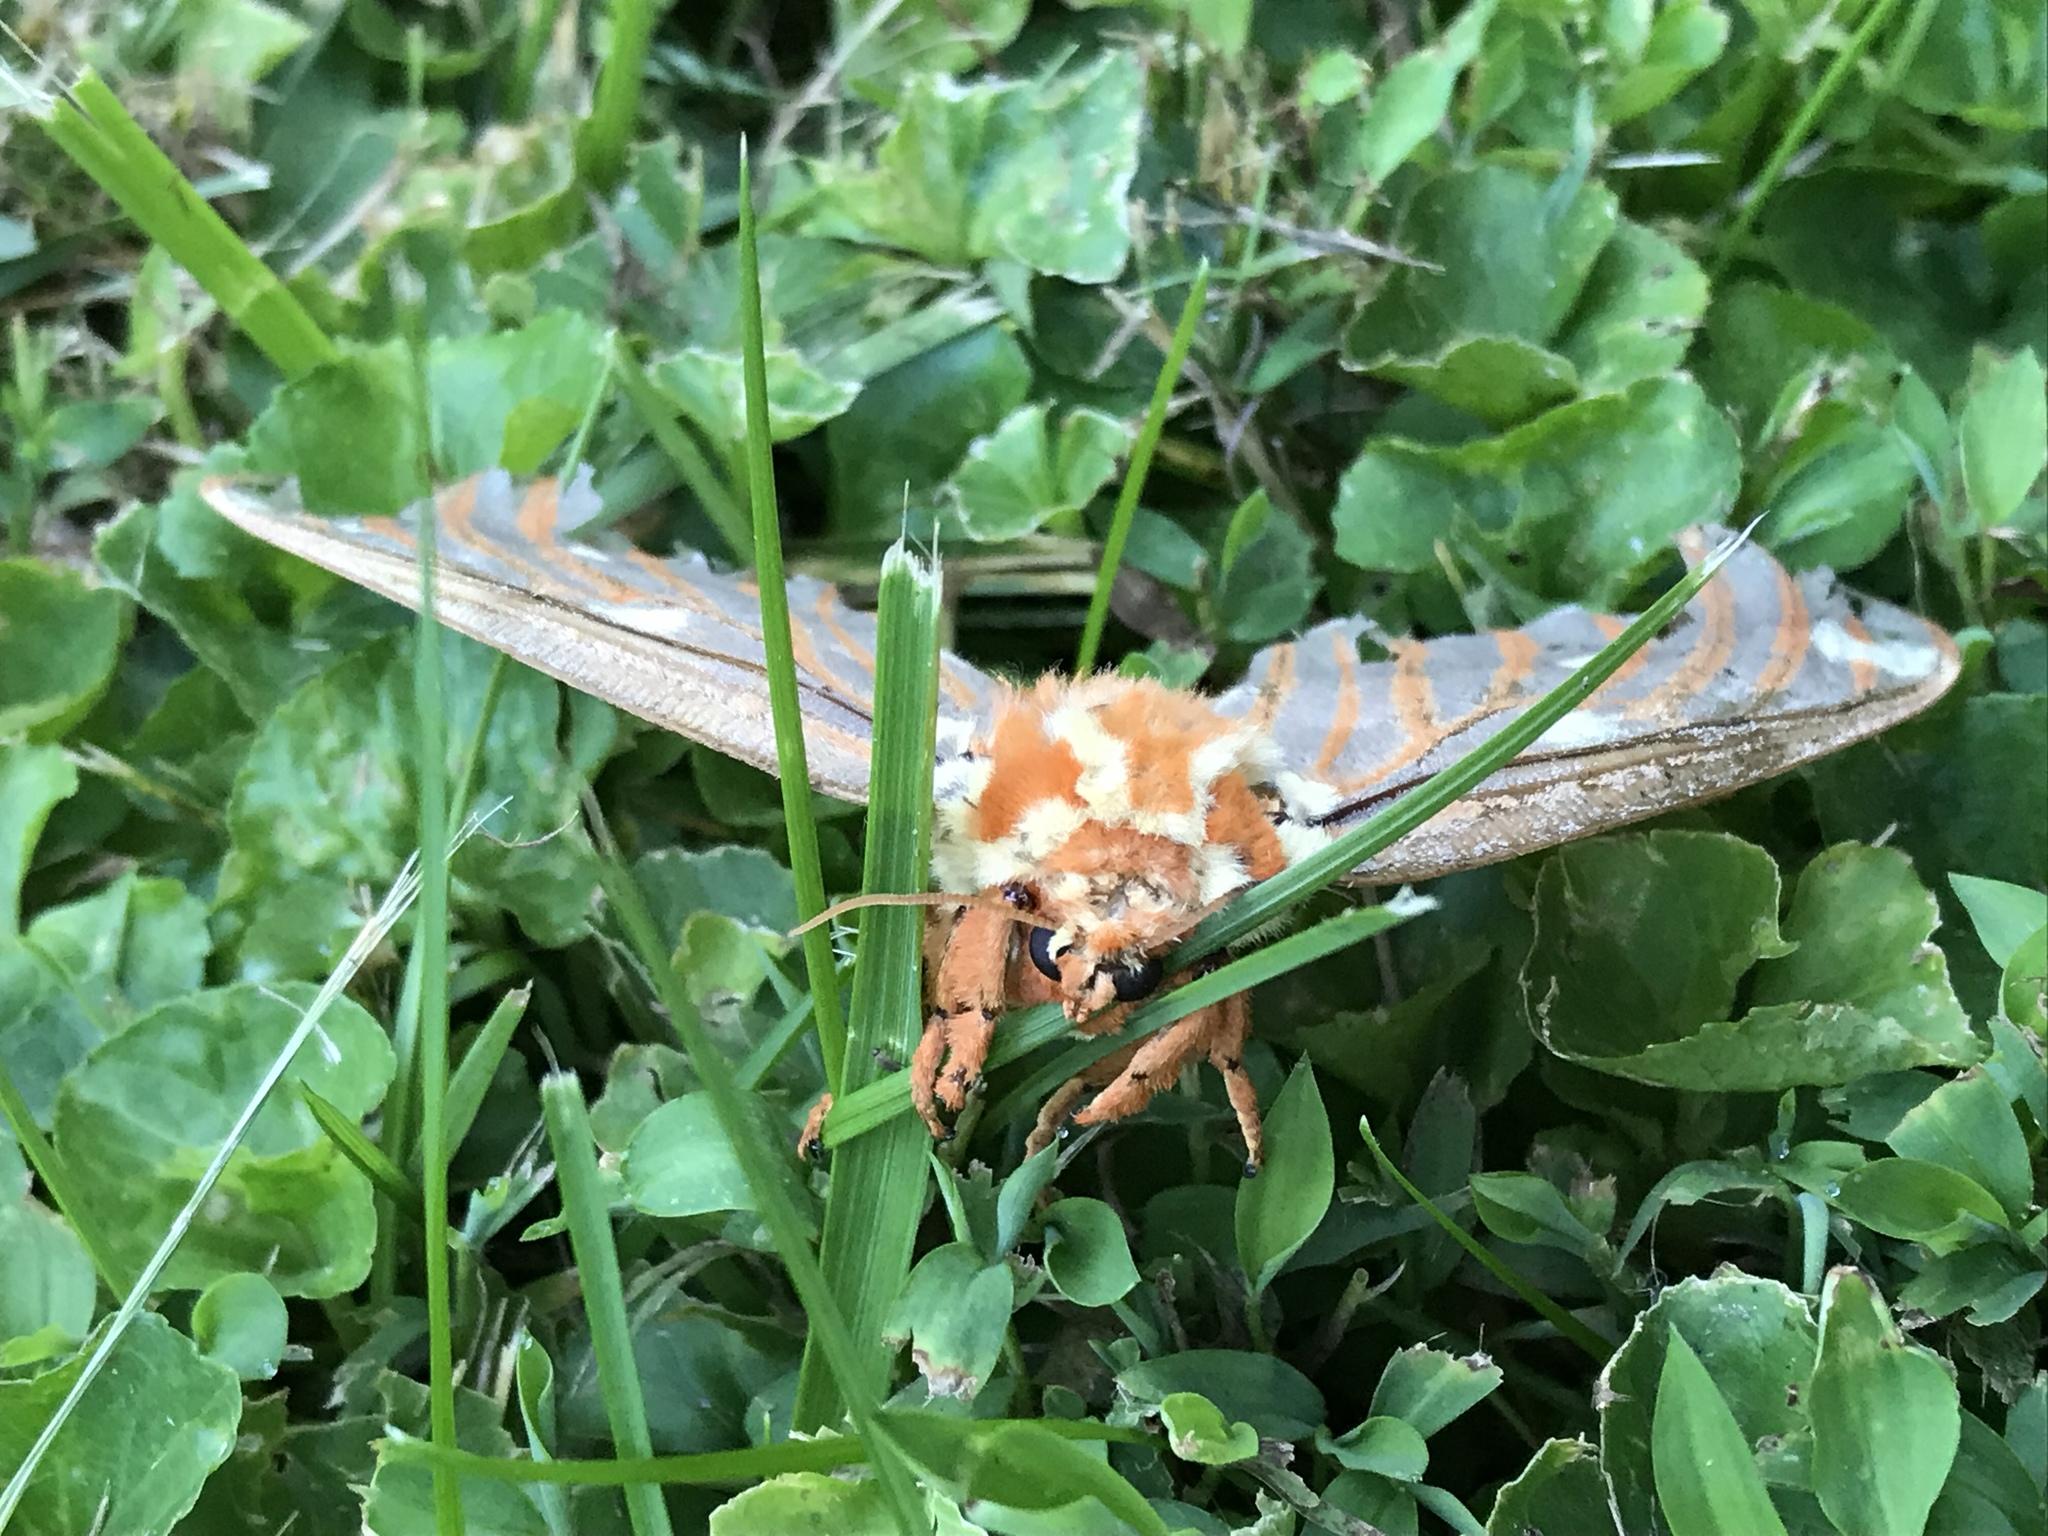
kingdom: Animalia
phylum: Arthropoda
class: Insecta
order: Lepidoptera
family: Saturniidae
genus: Citheronia
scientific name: Citheronia regalis
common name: Hickory horned devil
